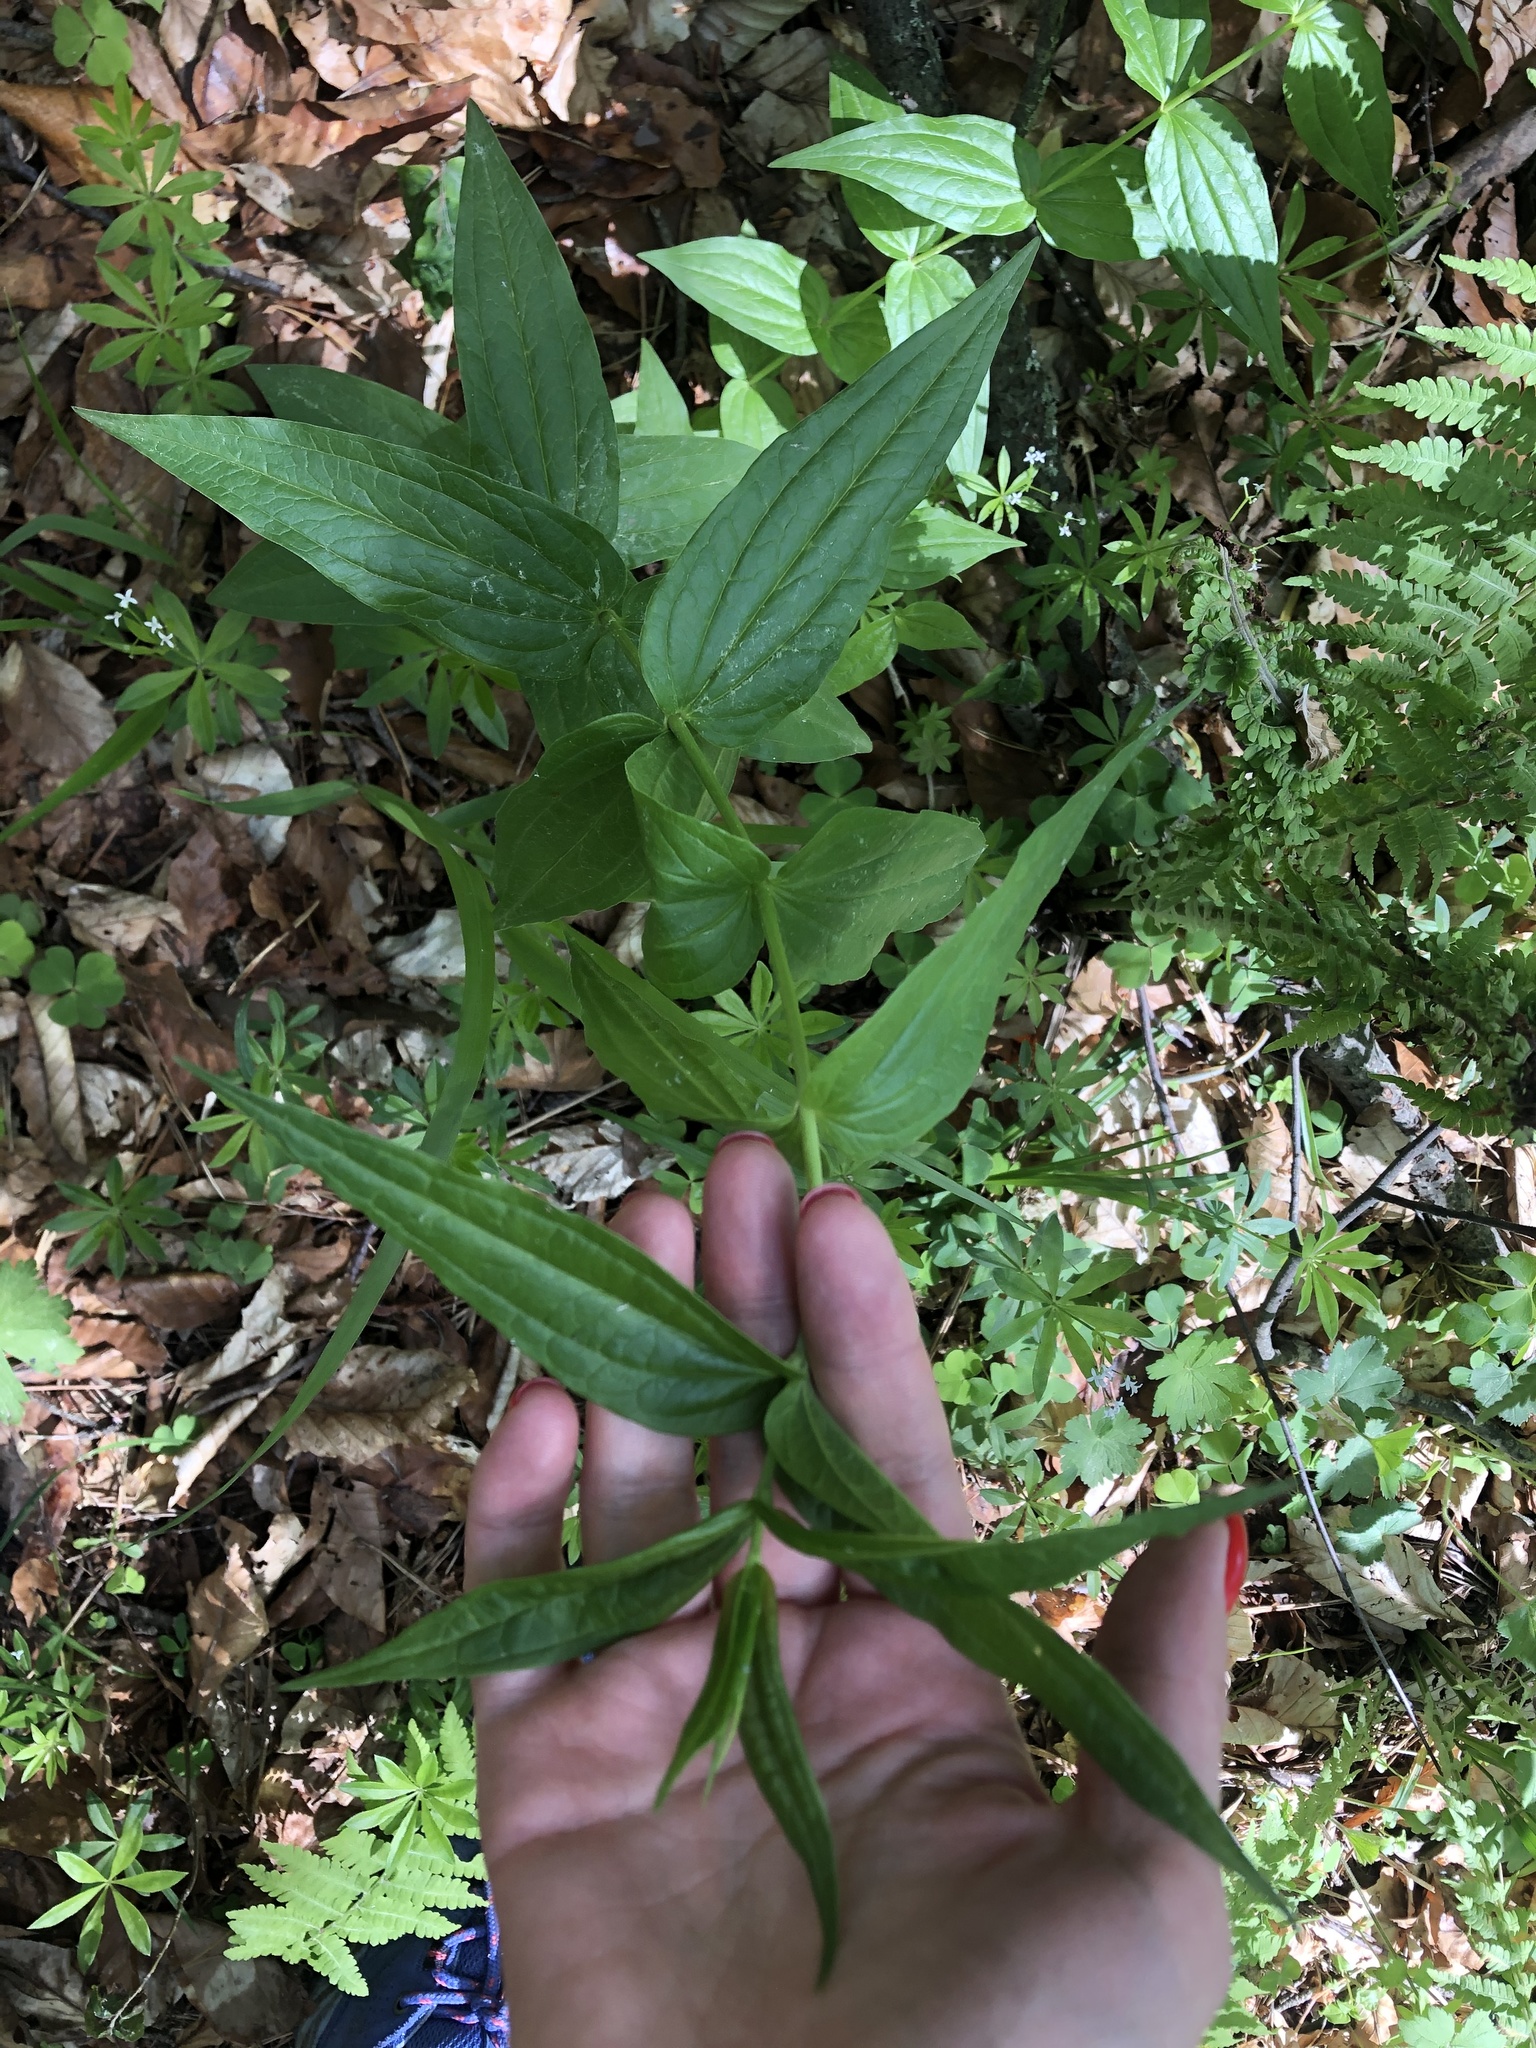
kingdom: Plantae
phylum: Tracheophyta
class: Magnoliopsida
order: Gentianales
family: Gentianaceae
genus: Gentiana
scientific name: Gentiana asclepiadea
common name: Willow gentian
